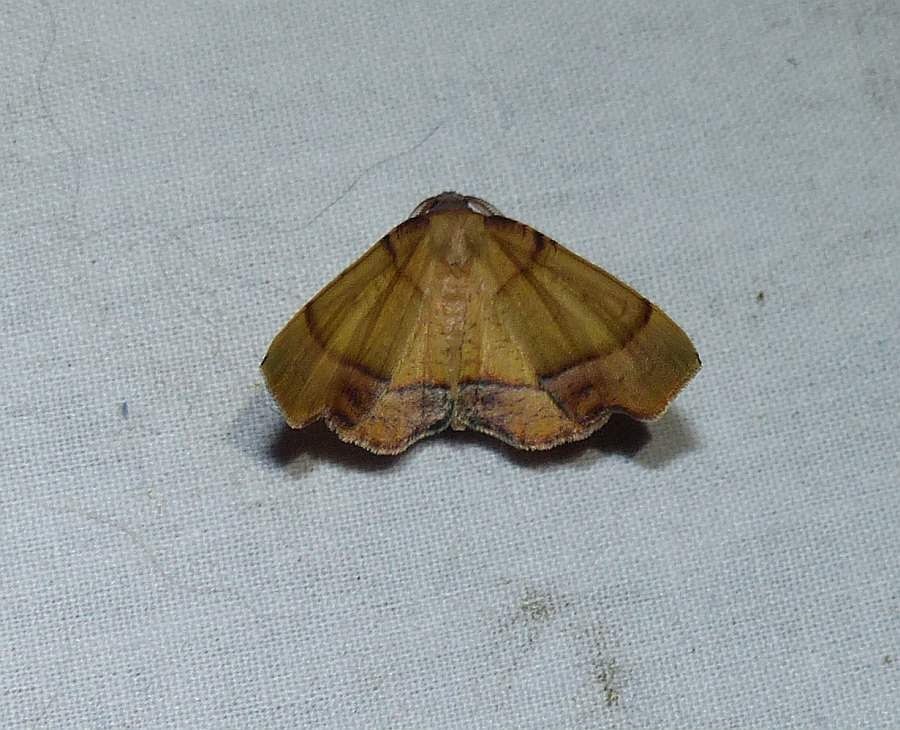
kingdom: Animalia
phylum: Arthropoda
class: Insecta
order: Lepidoptera
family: Geometridae
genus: Plagodis
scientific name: Plagodis phlogosaria
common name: Straight-lined plagodis
